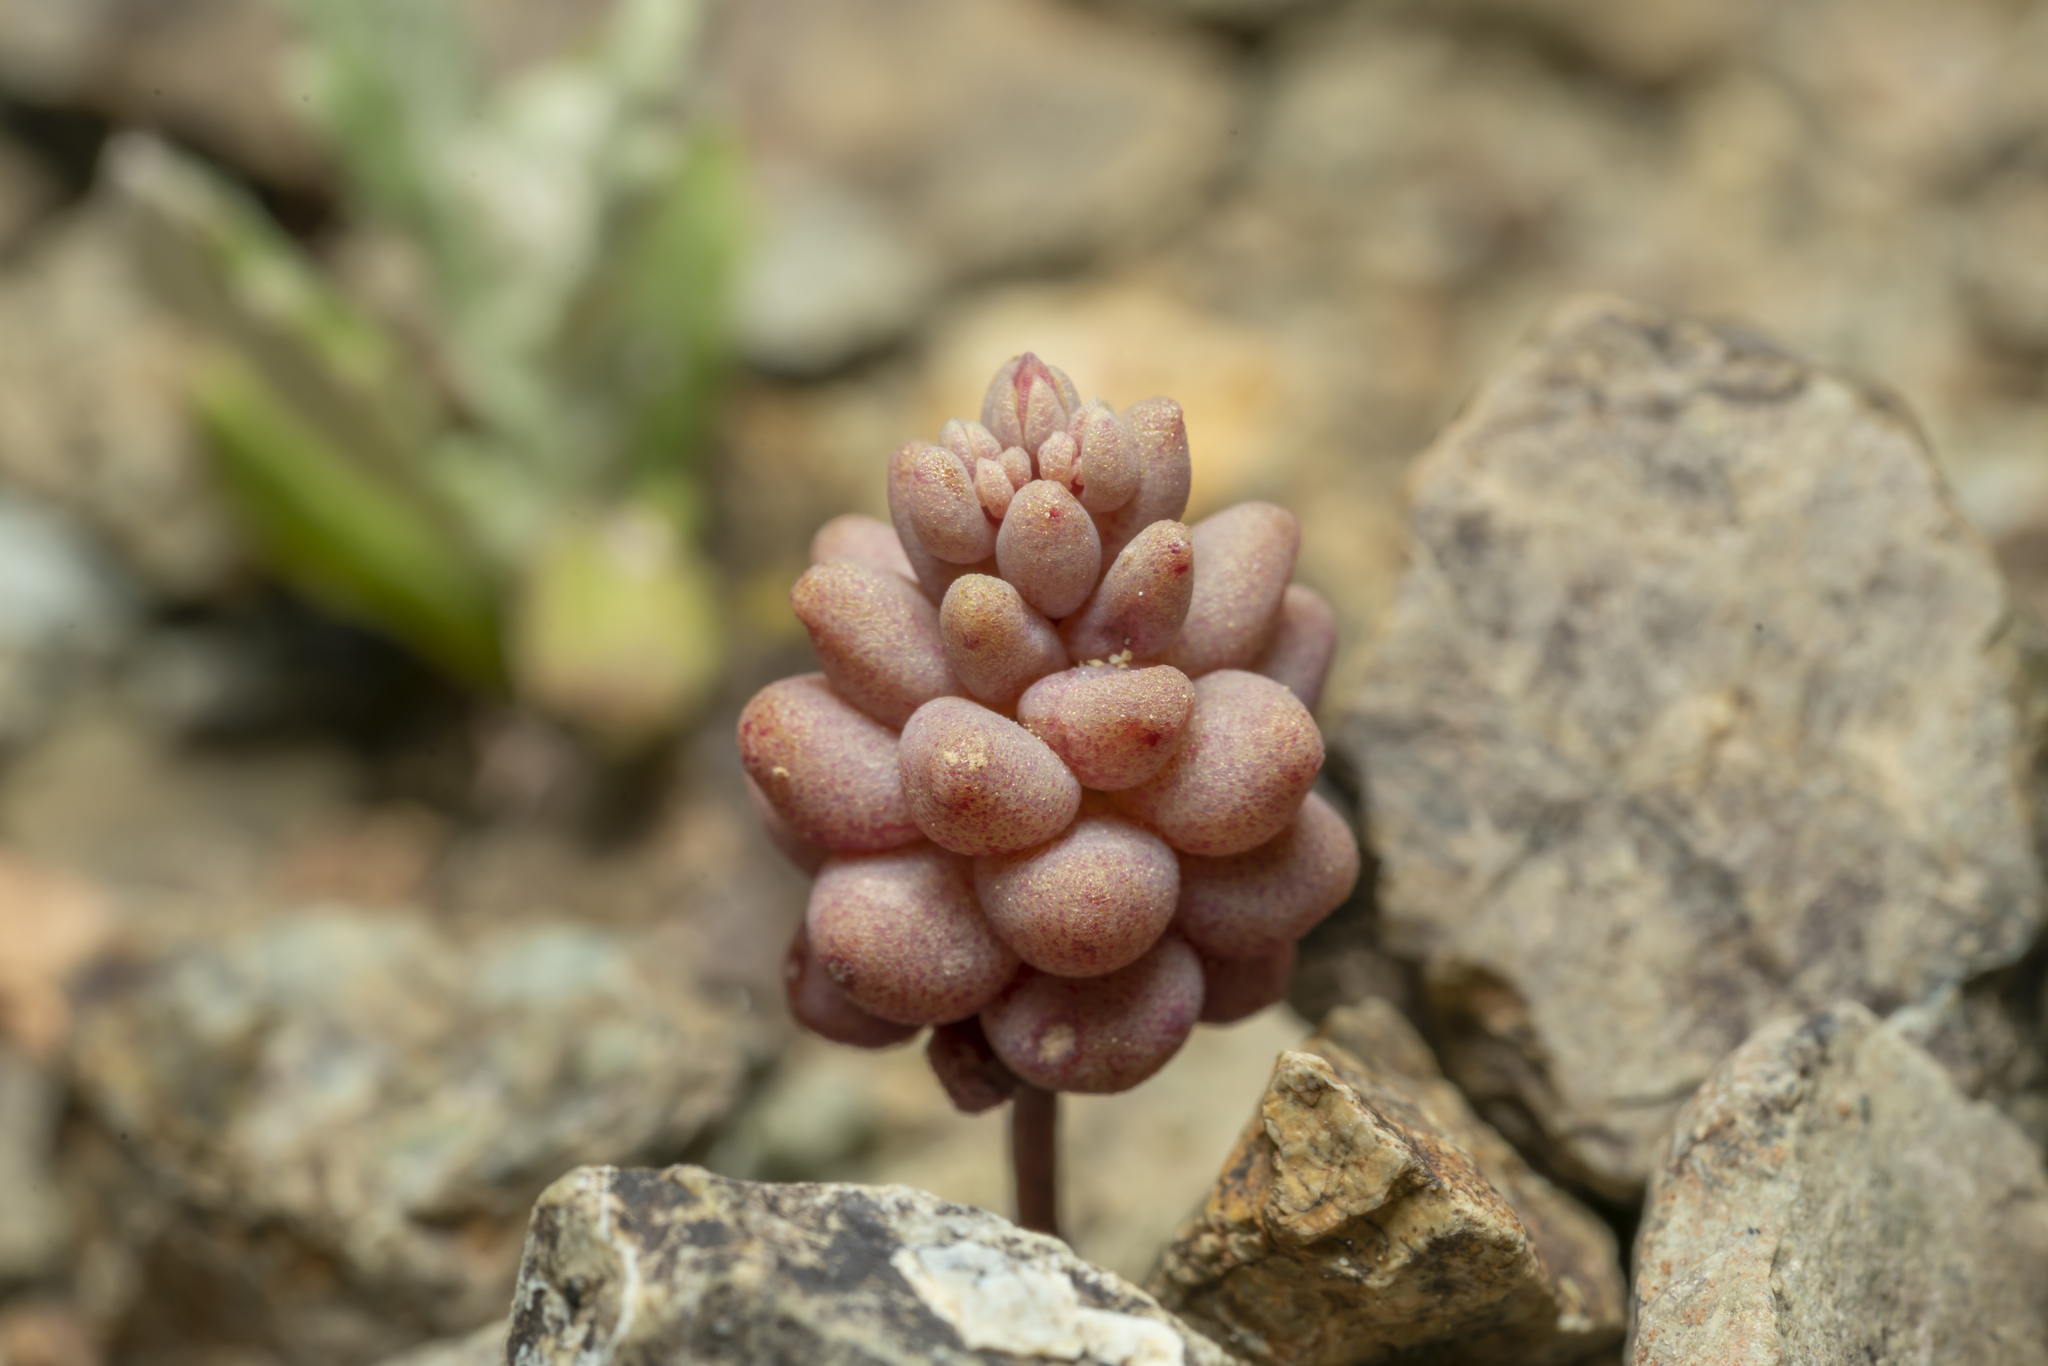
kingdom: Plantae
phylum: Tracheophyta
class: Magnoliopsida
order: Saxifragales
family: Crassulaceae
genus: Sedum
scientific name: Sedum eriocarpum
